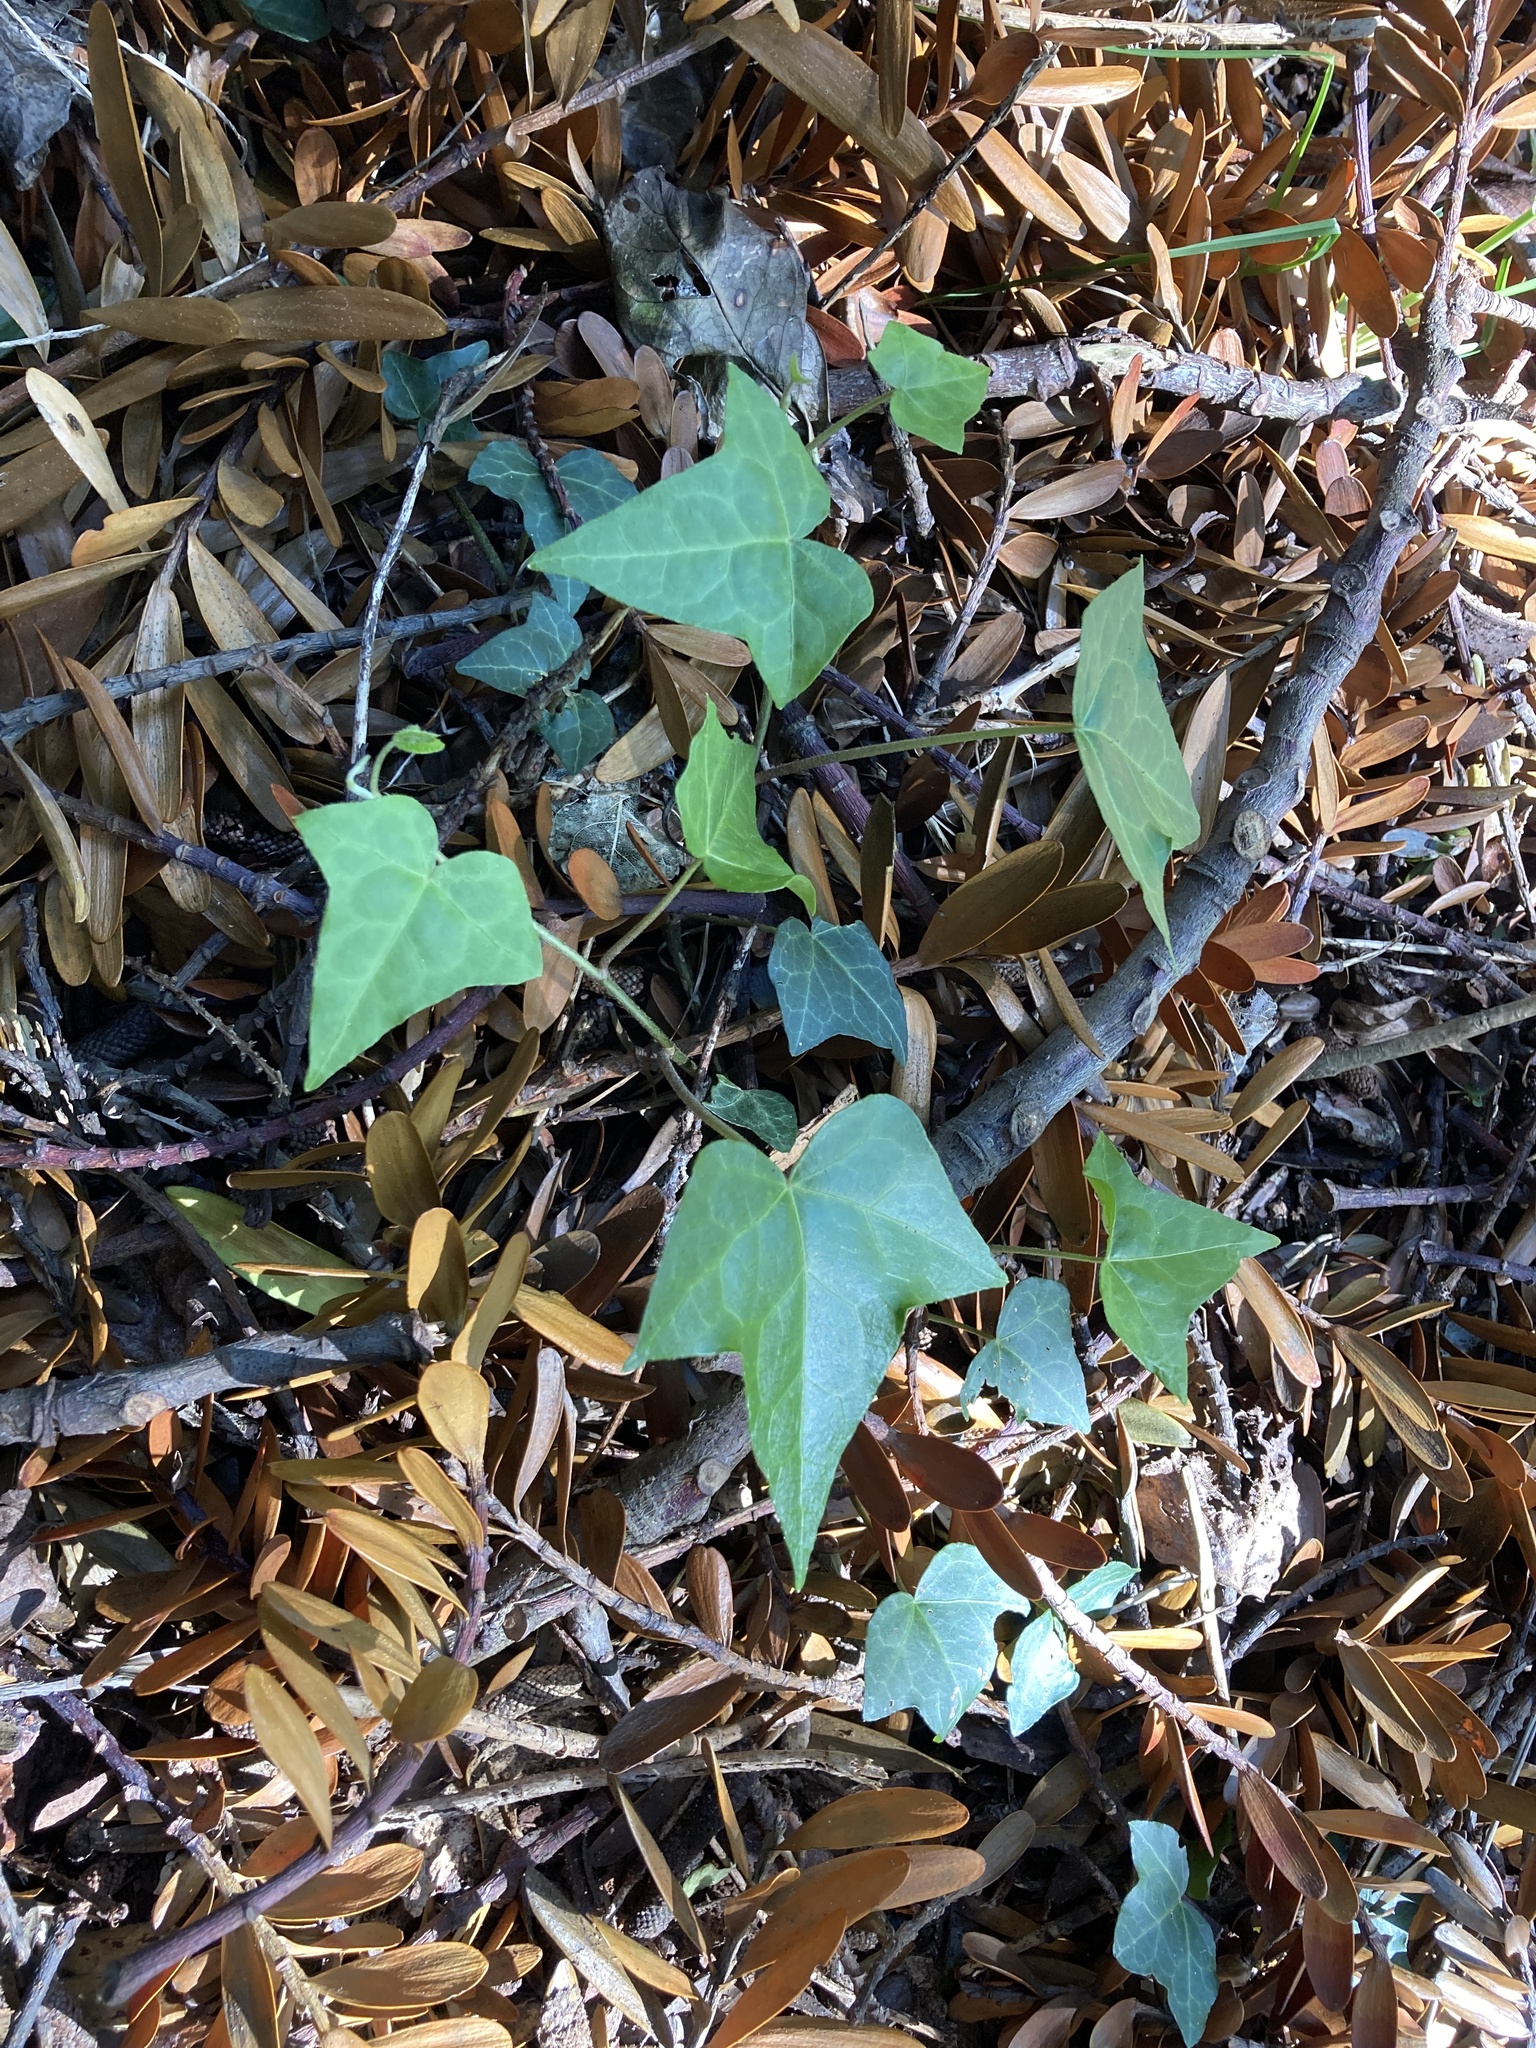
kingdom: Plantae
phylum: Tracheophyta
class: Magnoliopsida
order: Apiales
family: Araliaceae
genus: Hedera
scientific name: Hedera helix
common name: Ivy
